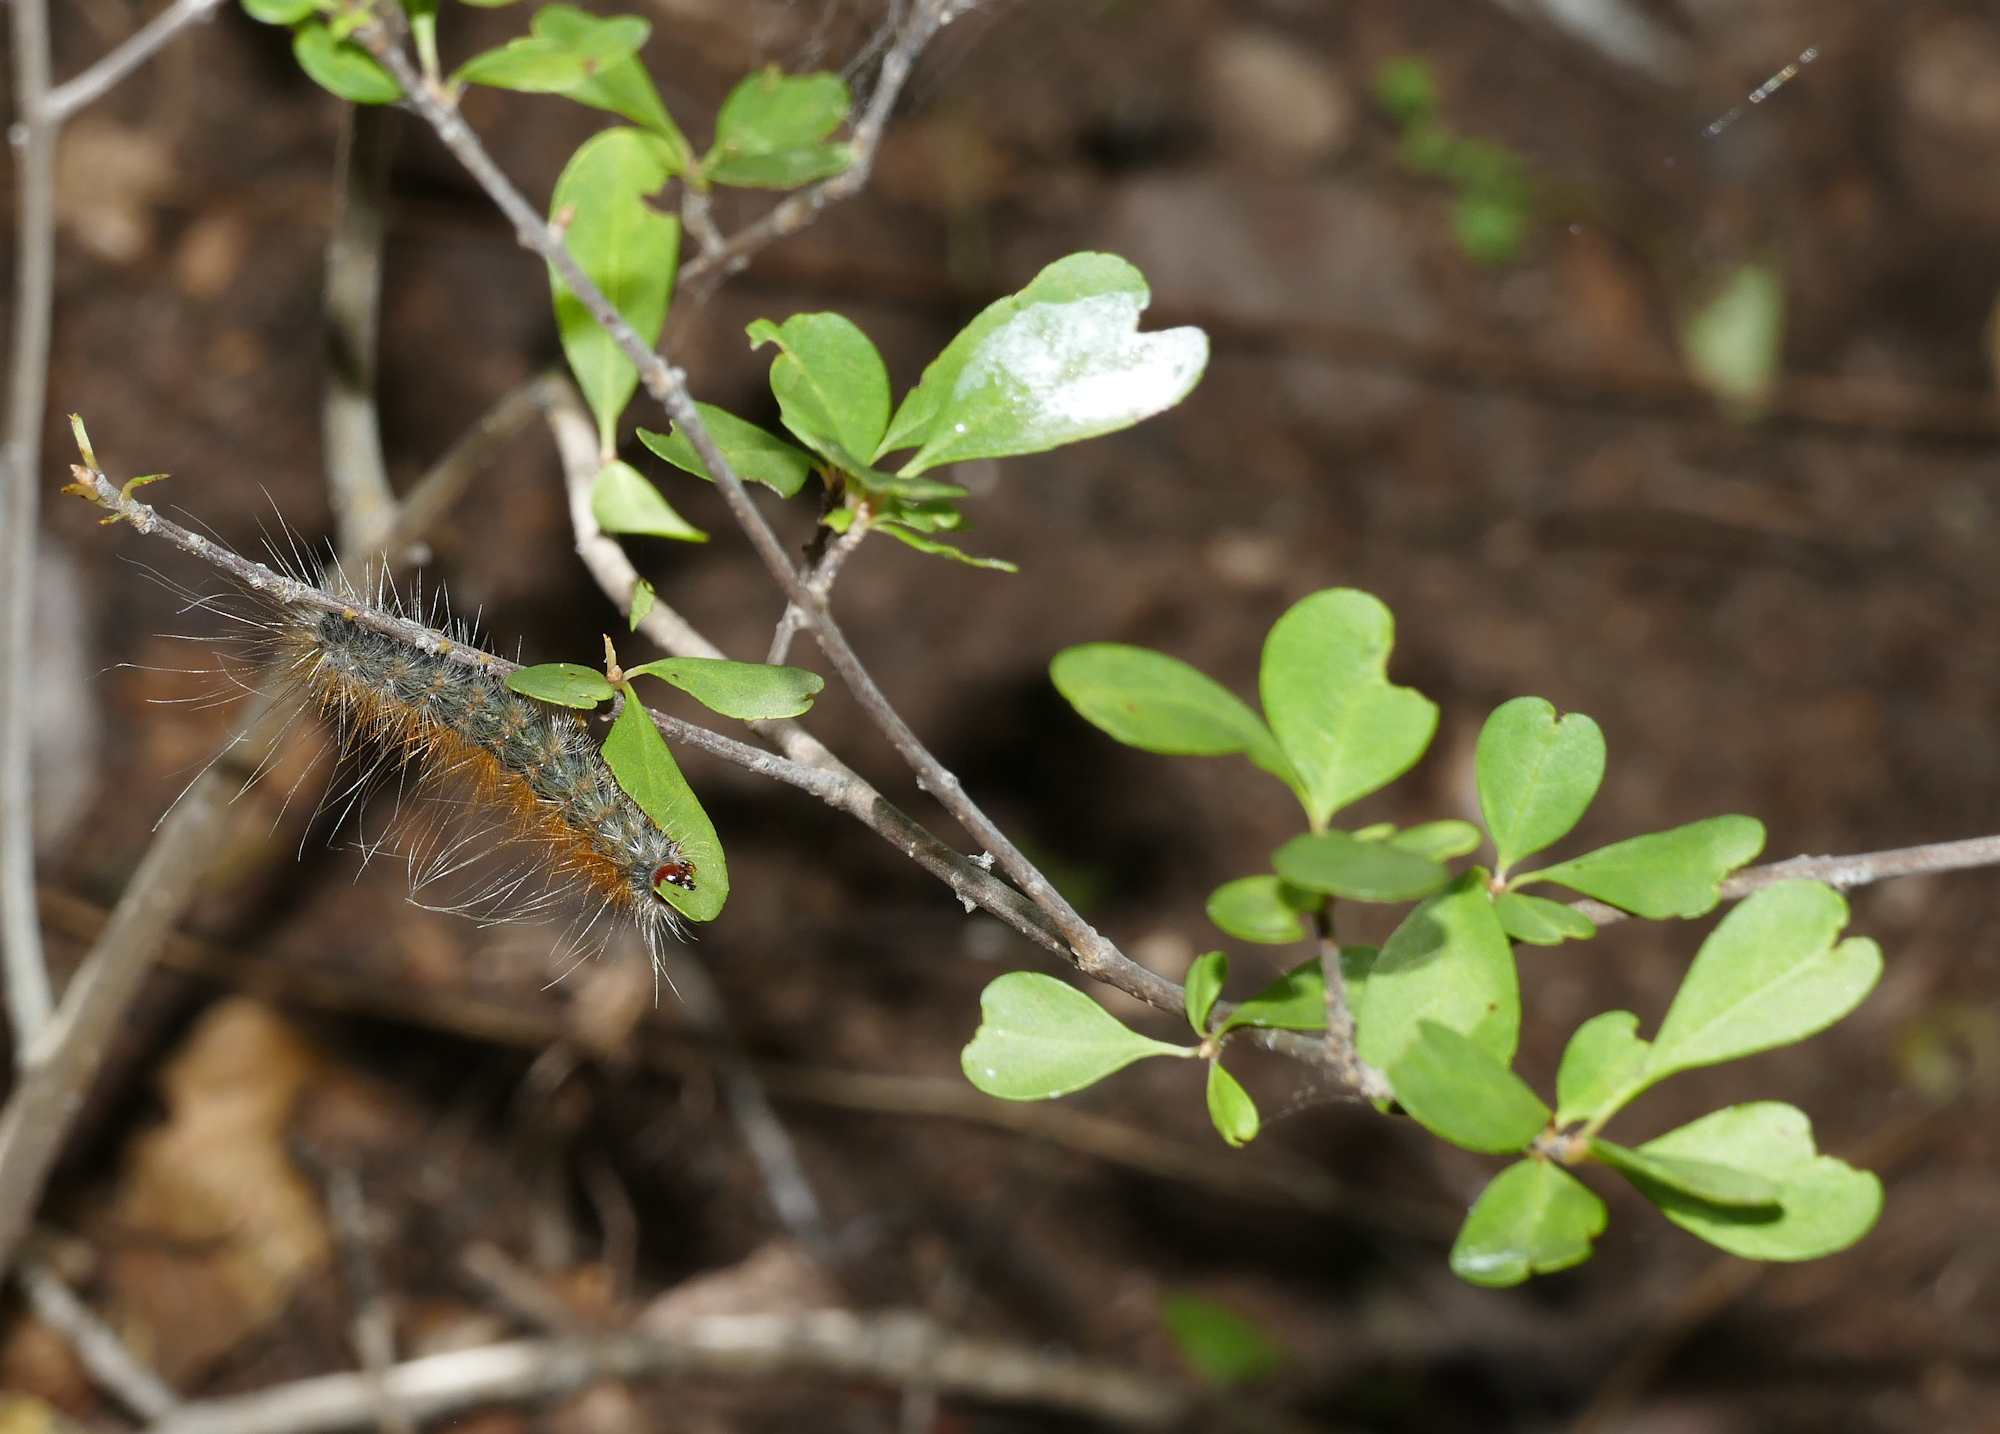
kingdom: Animalia
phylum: Arthropoda
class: Insecta
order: Lepidoptera
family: Erebidae
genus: Hyphantria
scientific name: Hyphantria cunea
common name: American white moth
